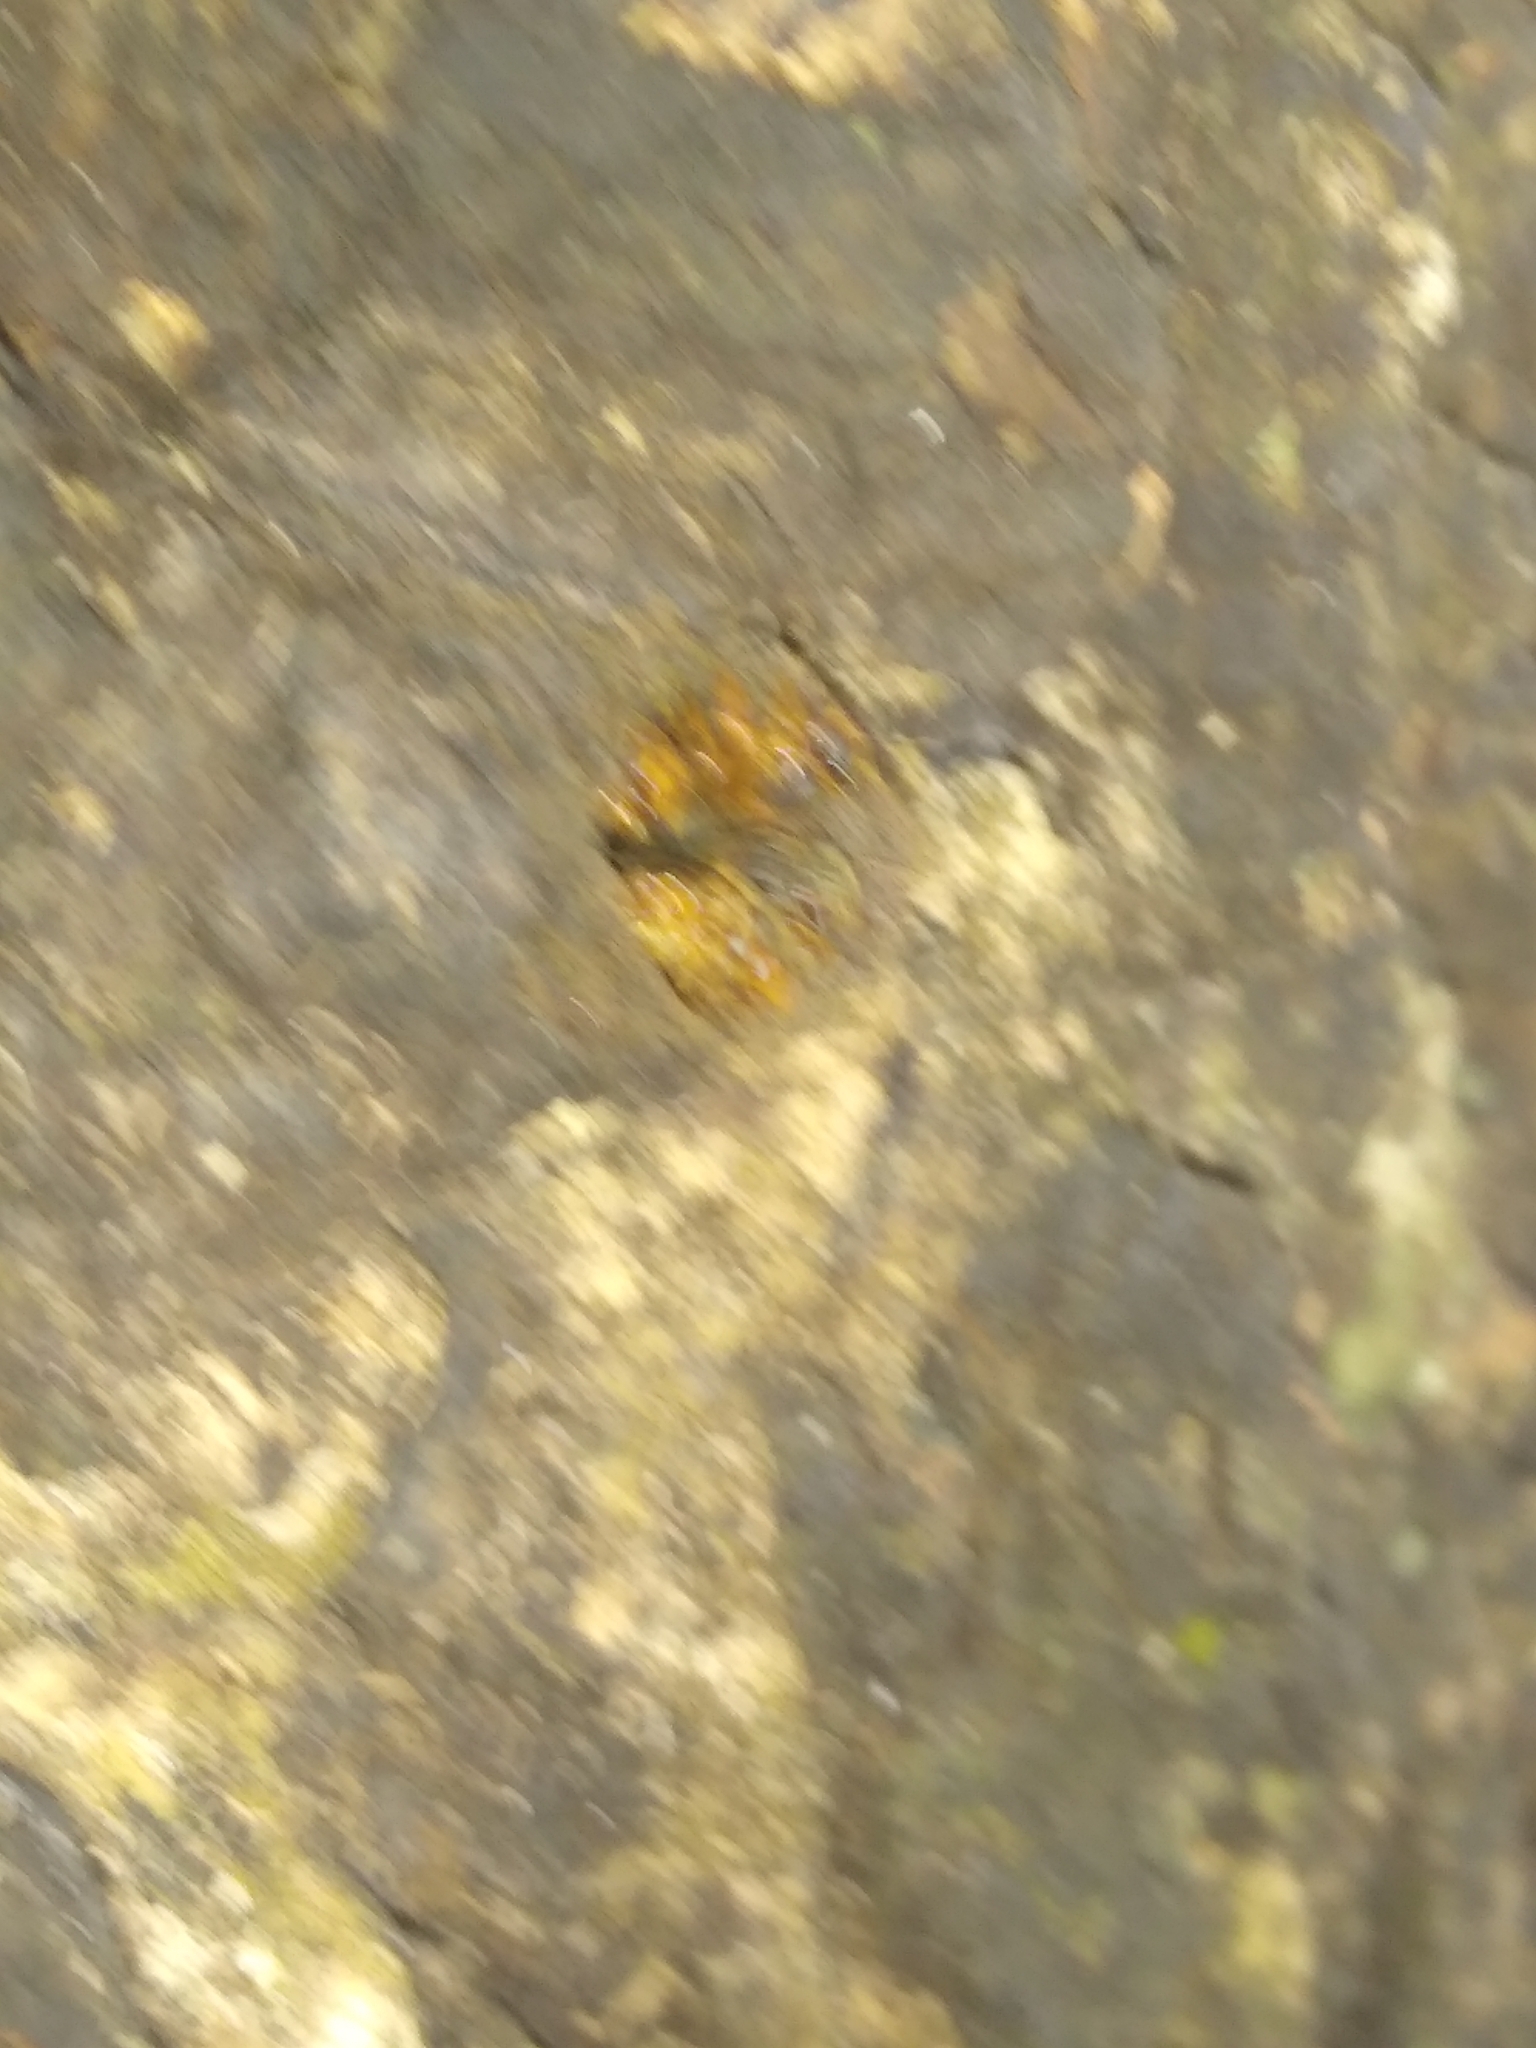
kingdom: Animalia
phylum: Arthropoda
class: Insecta
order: Hymenoptera
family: Apidae
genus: Scaptotrigona
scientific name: Scaptotrigona pectoralis
